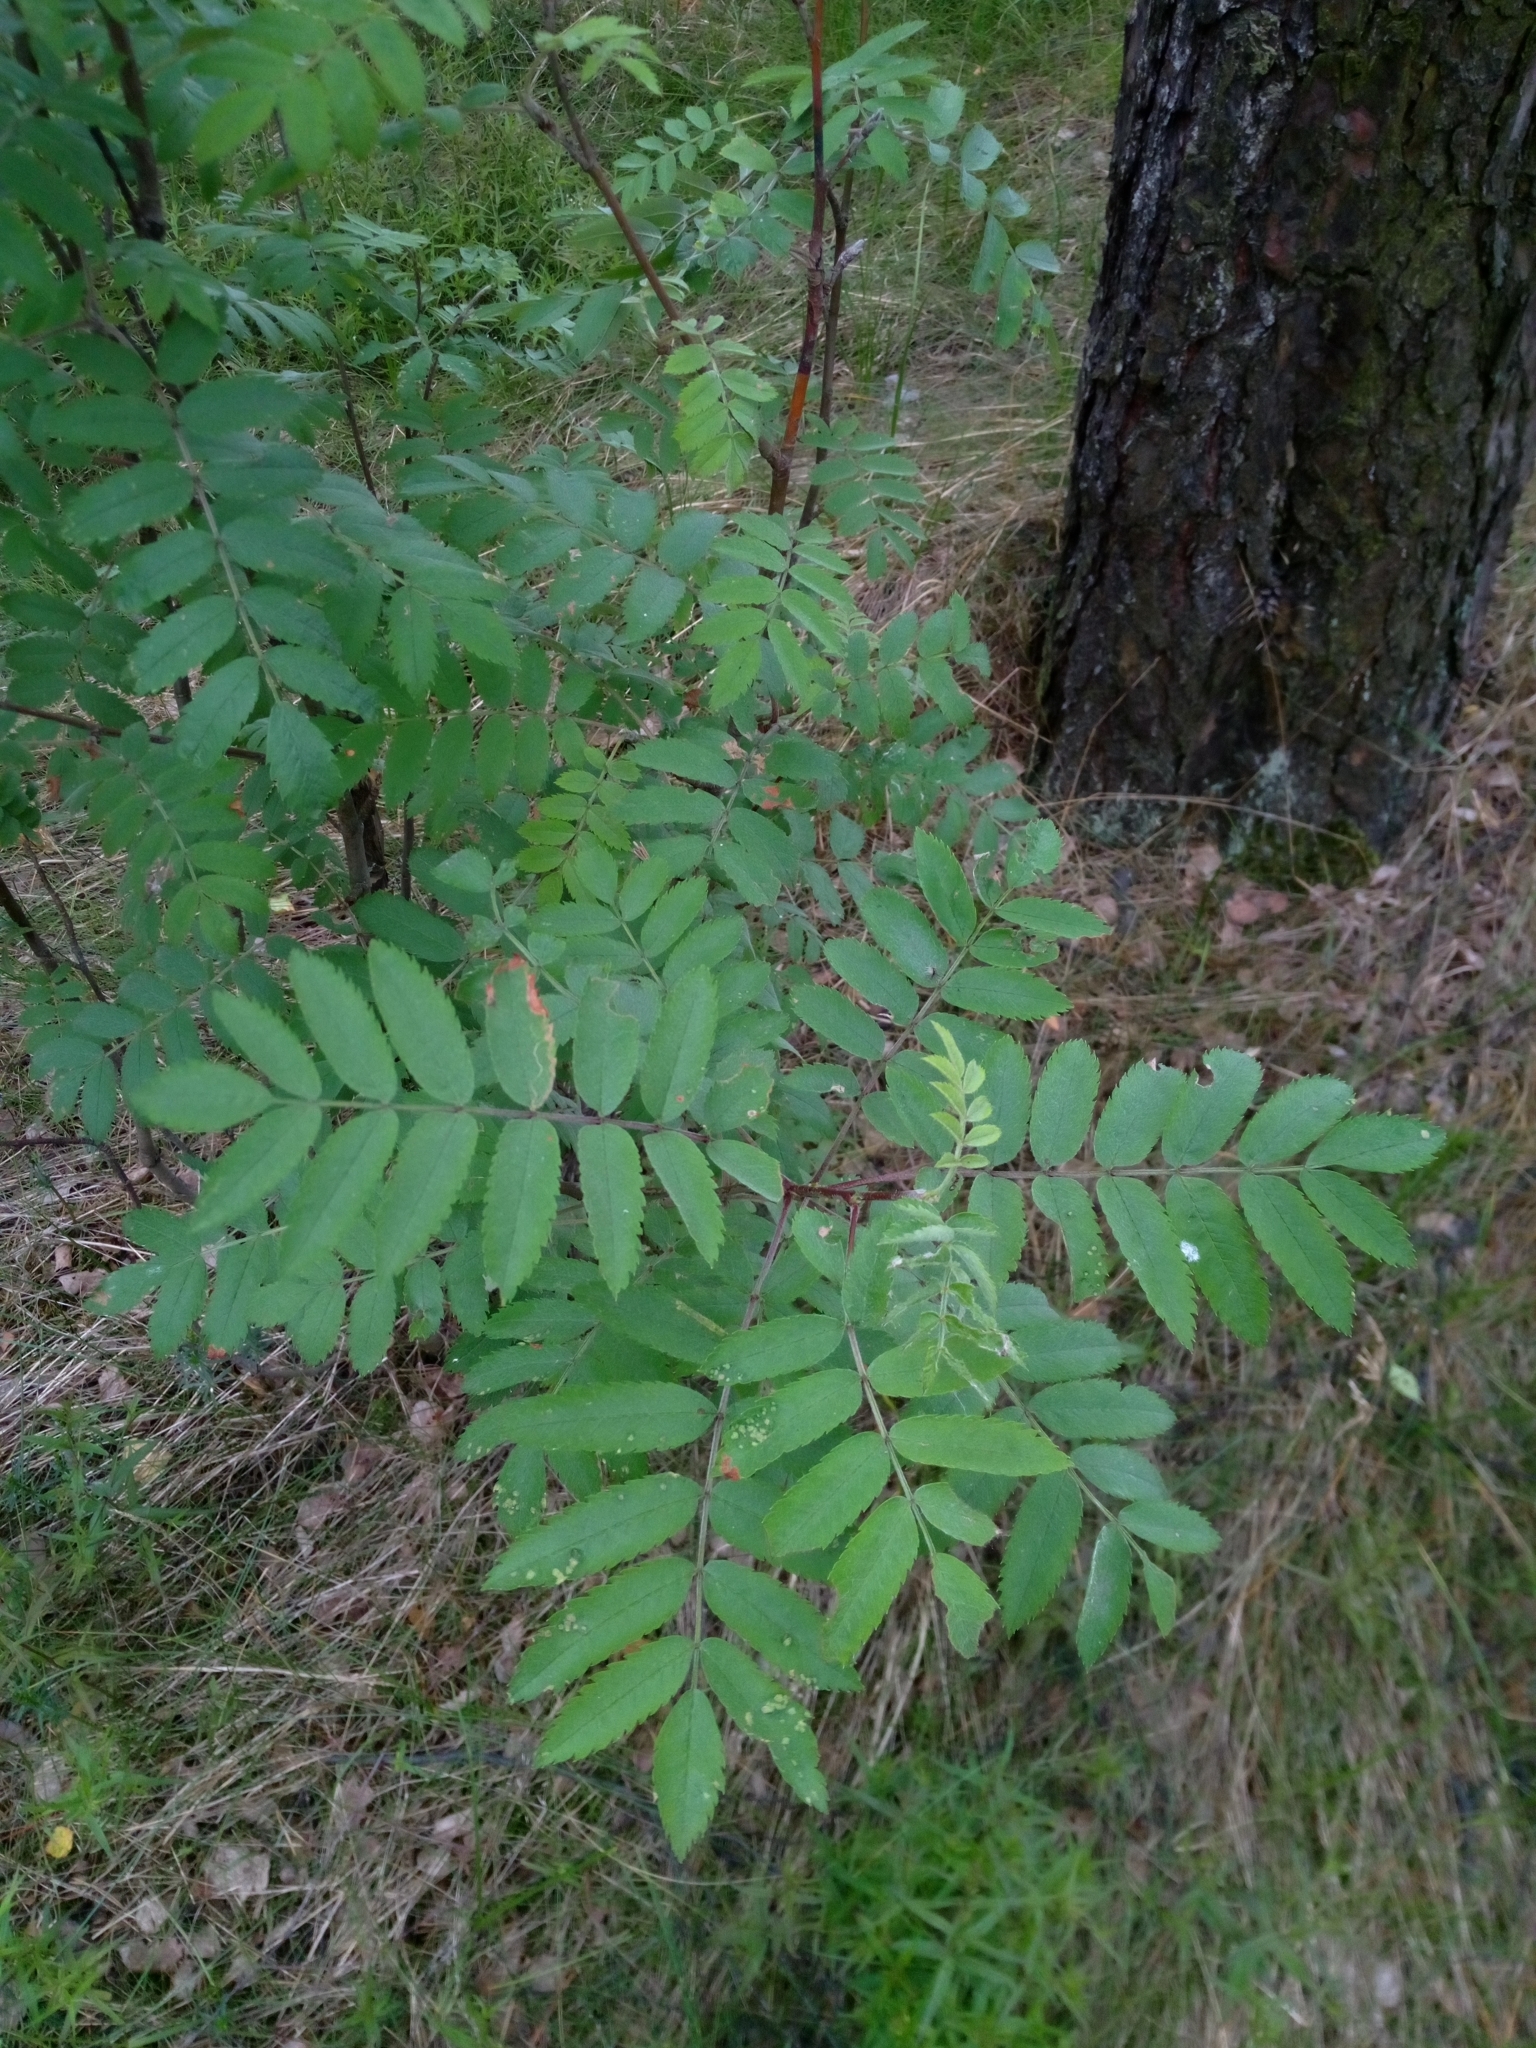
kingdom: Plantae
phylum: Tracheophyta
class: Magnoliopsida
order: Rosales
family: Rosaceae
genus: Sorbus
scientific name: Sorbus aucuparia
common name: Rowan
